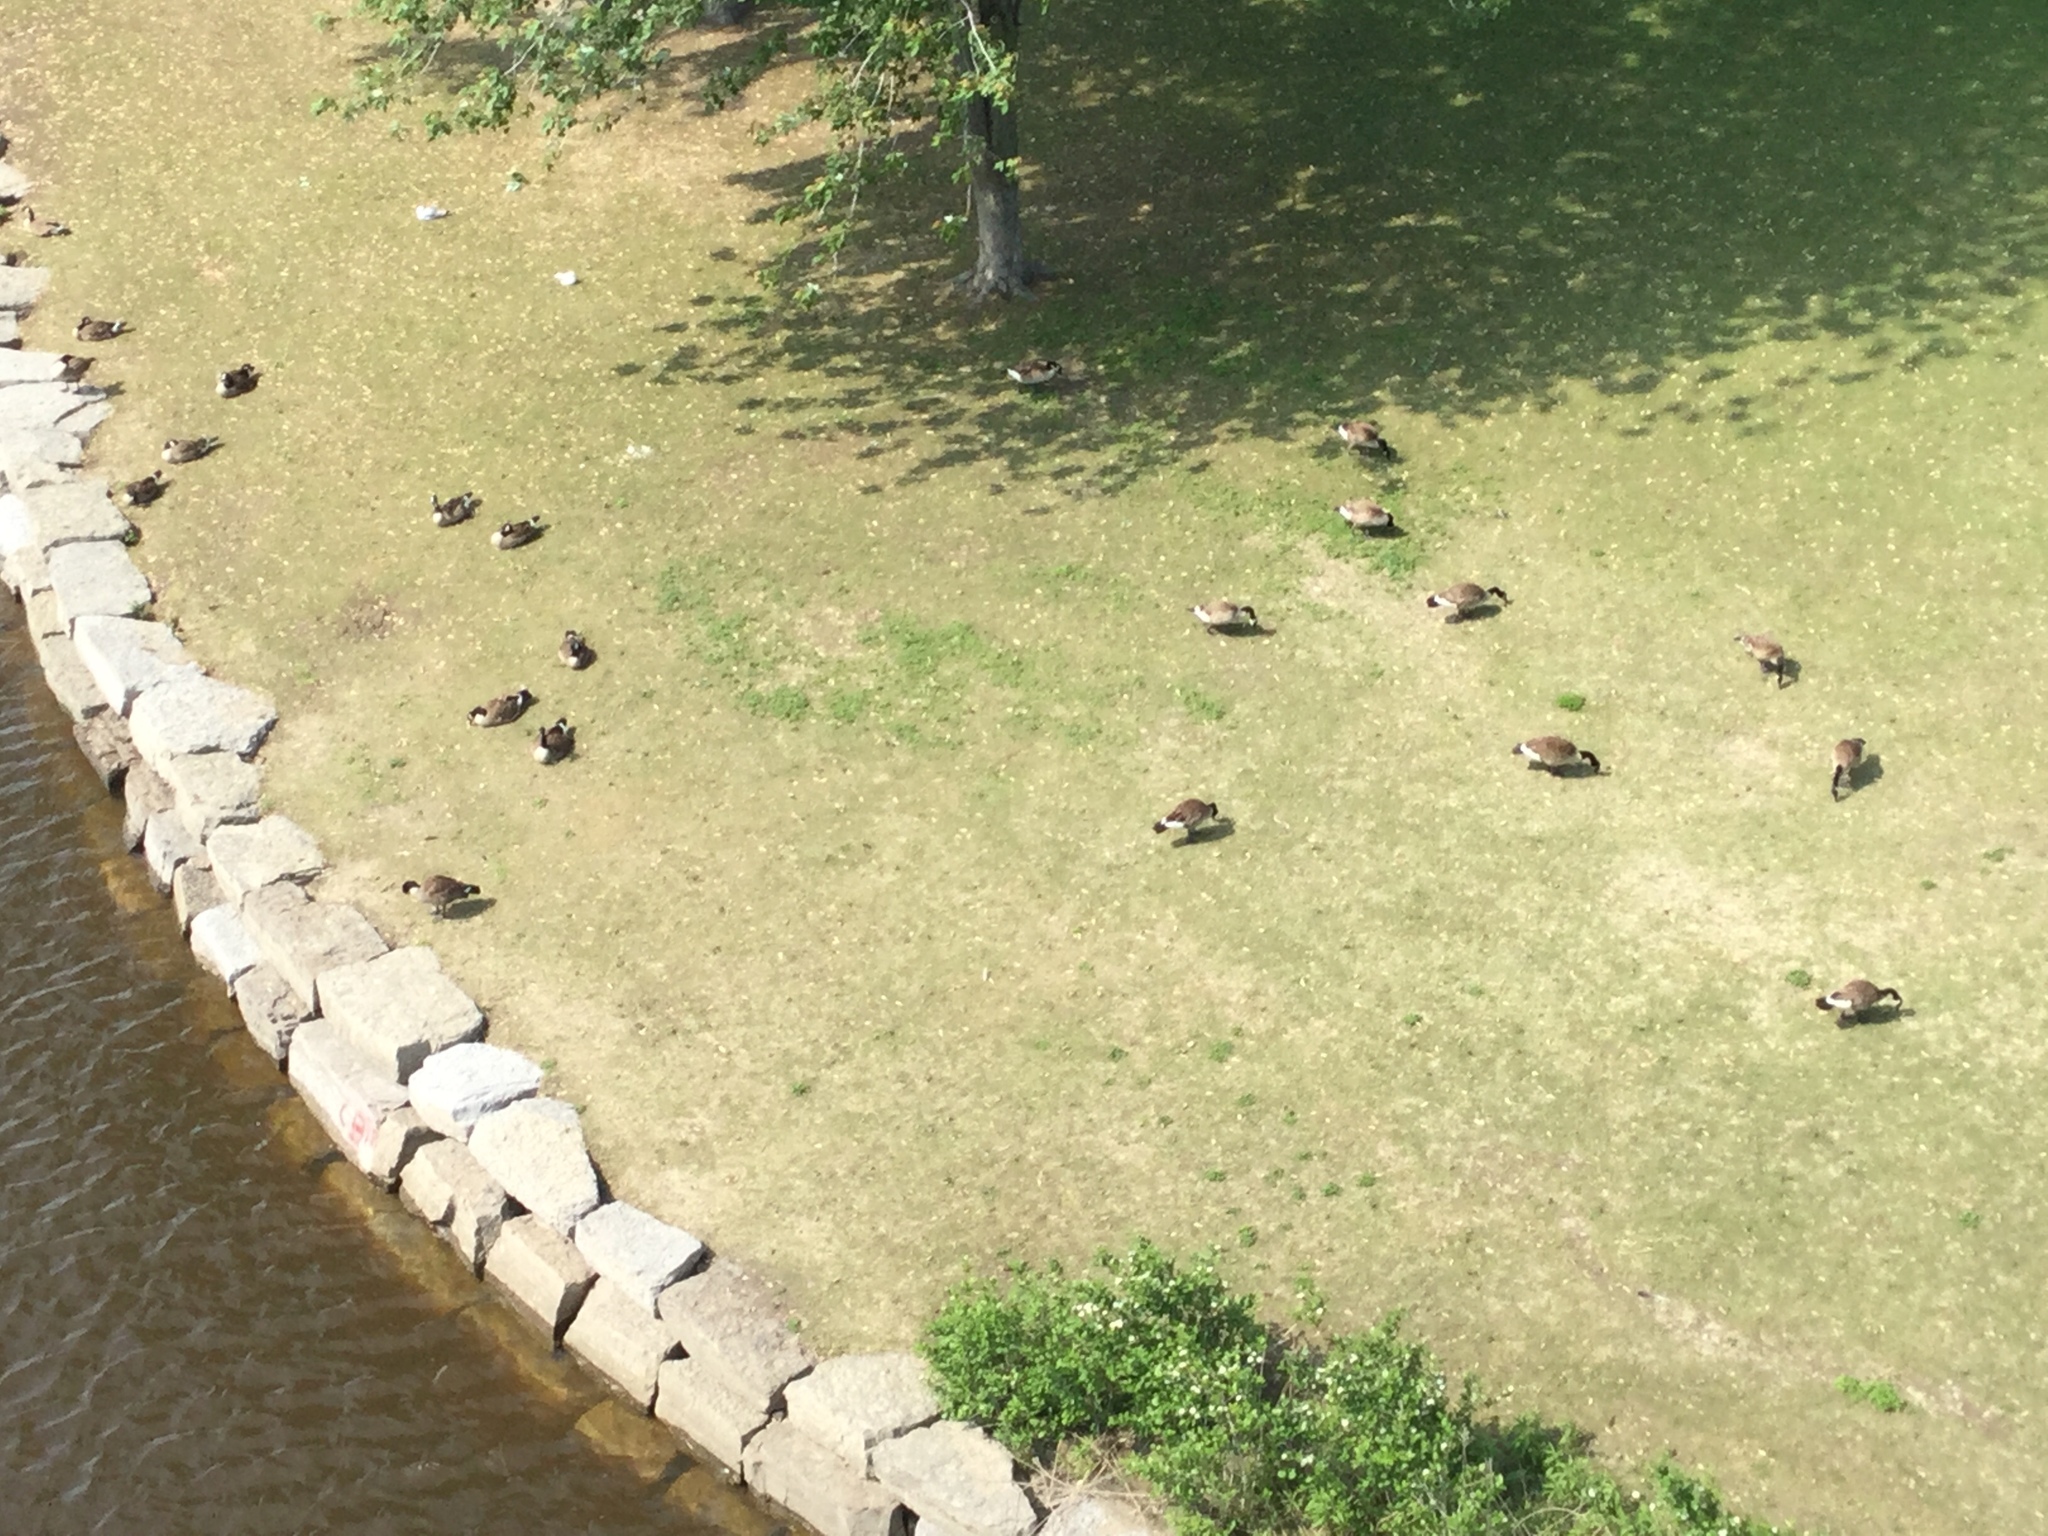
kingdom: Animalia
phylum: Chordata
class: Aves
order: Anseriformes
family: Anatidae
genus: Branta
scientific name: Branta canadensis
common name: Canada goose
